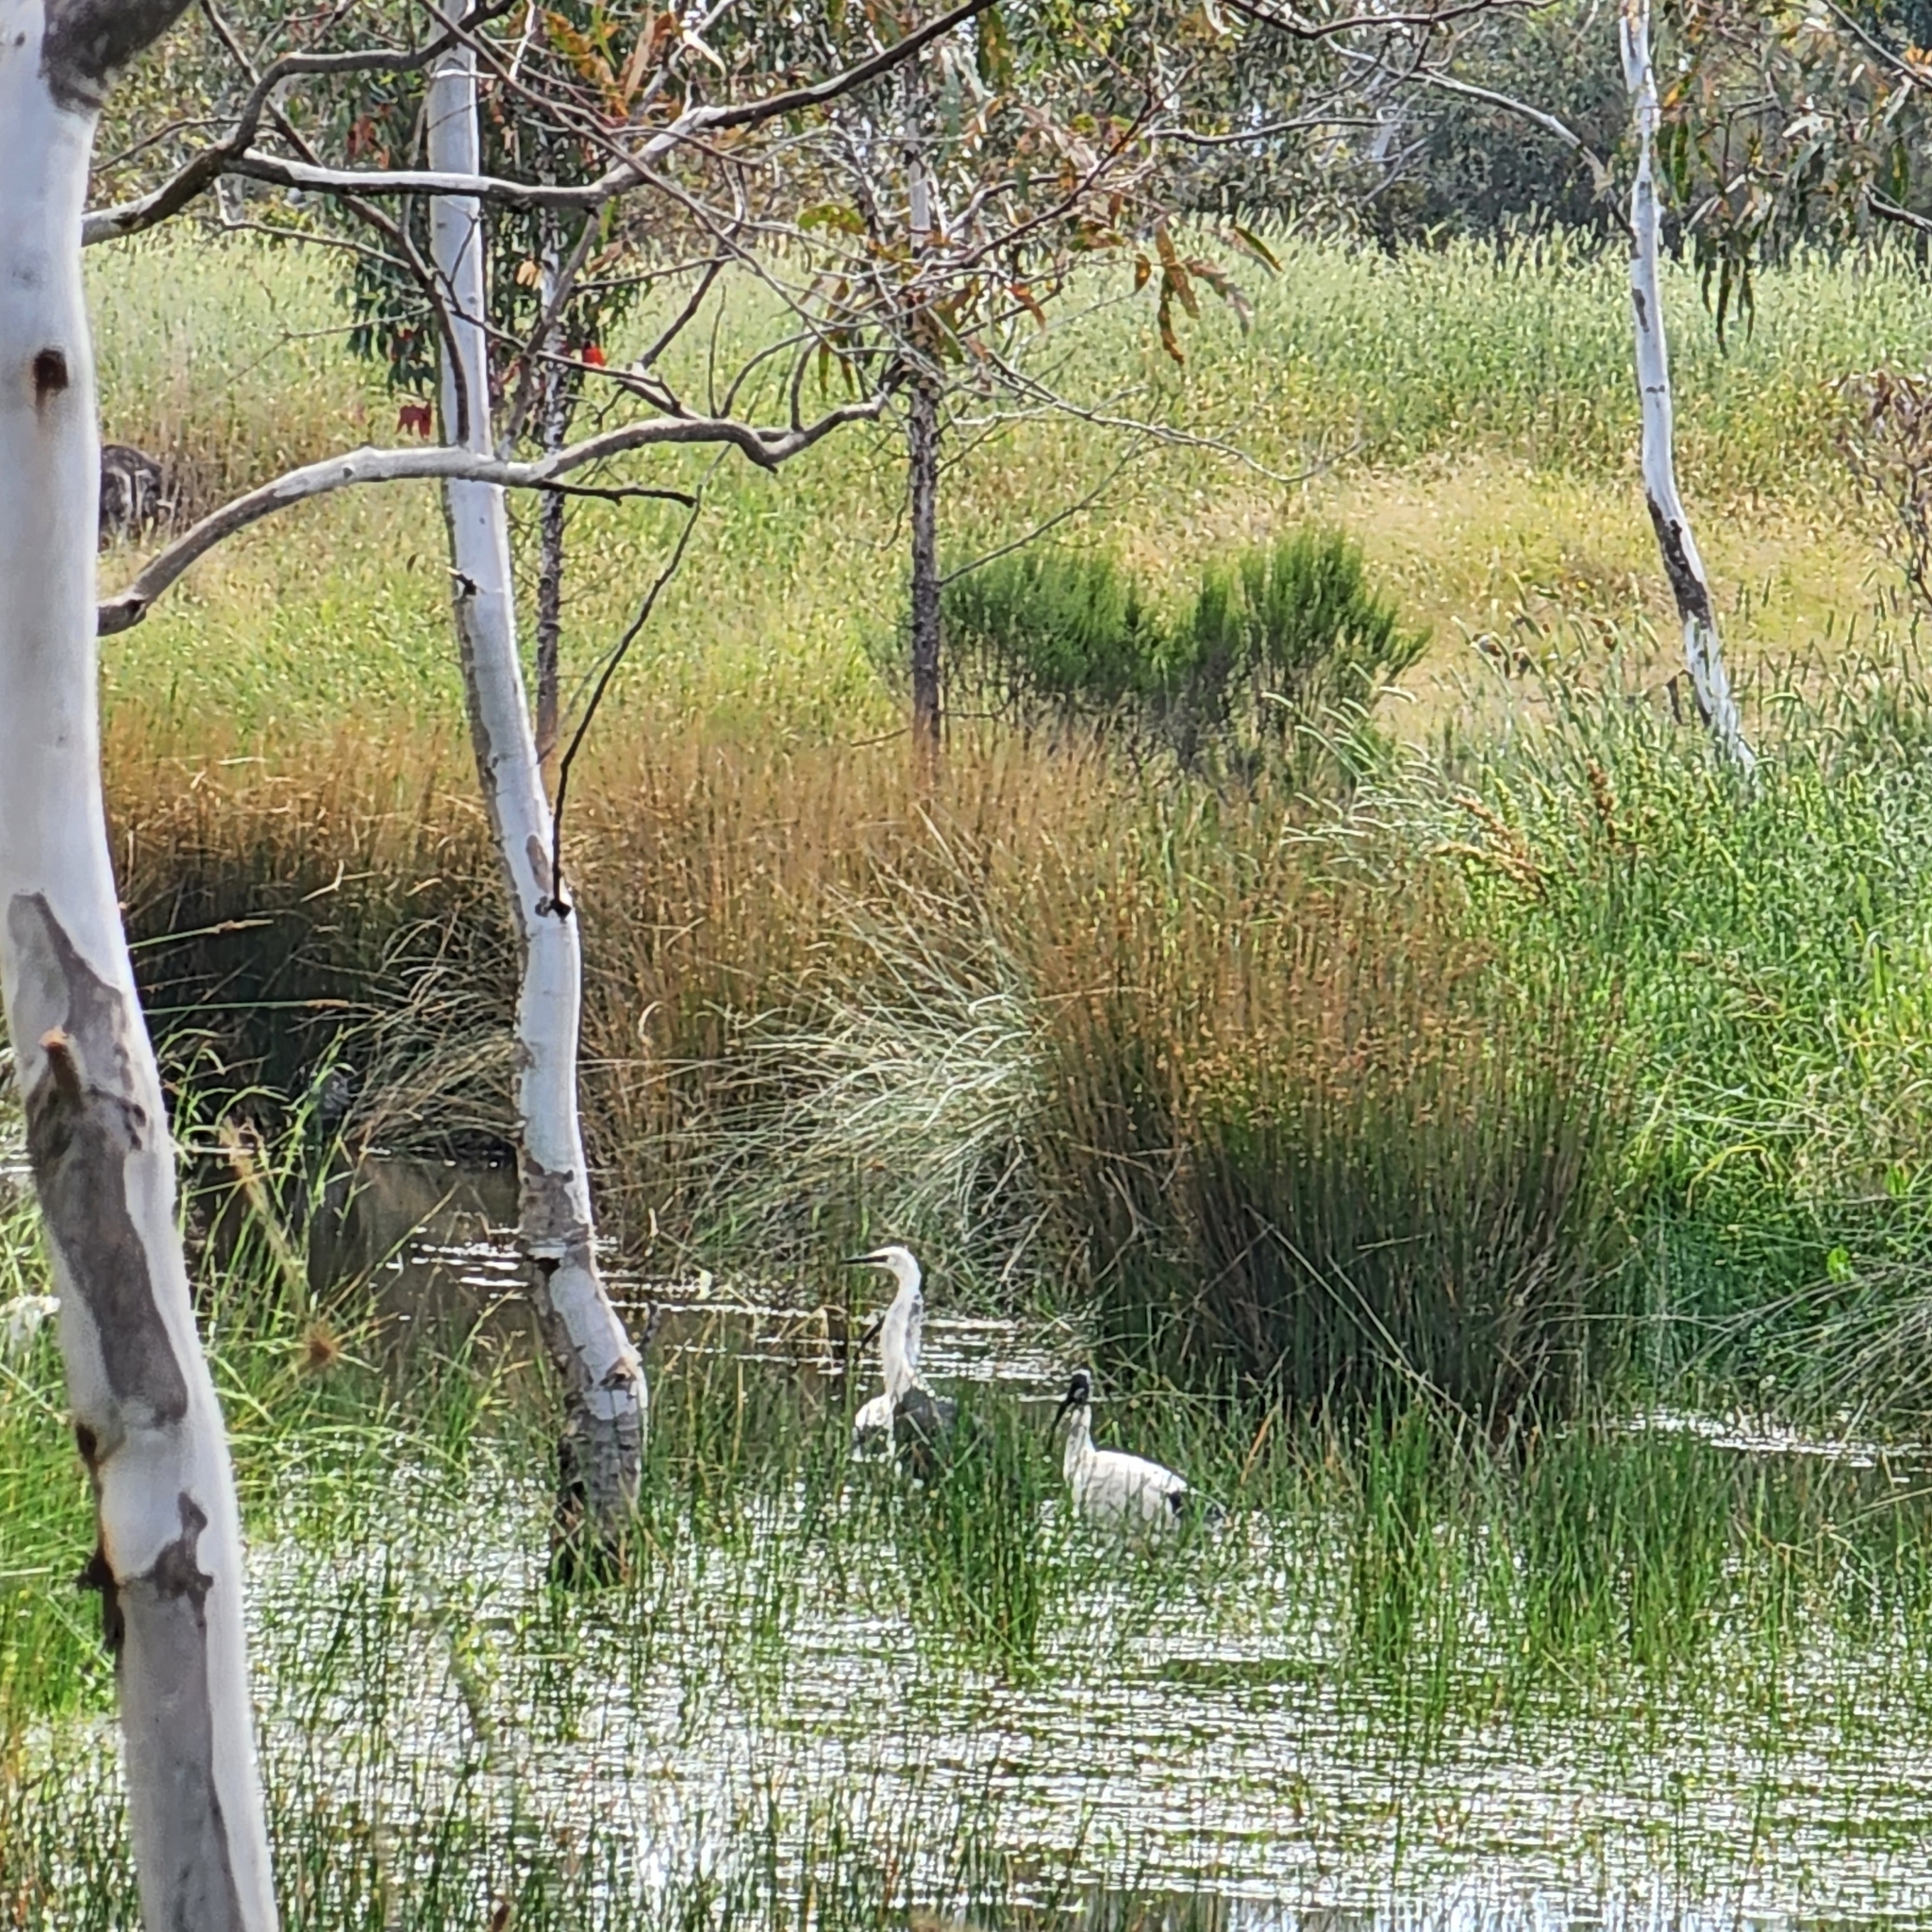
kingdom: Animalia
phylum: Chordata
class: Aves
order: Pelecaniformes
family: Ardeidae
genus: Ardea
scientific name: Ardea pacifica
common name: White-necked heron
